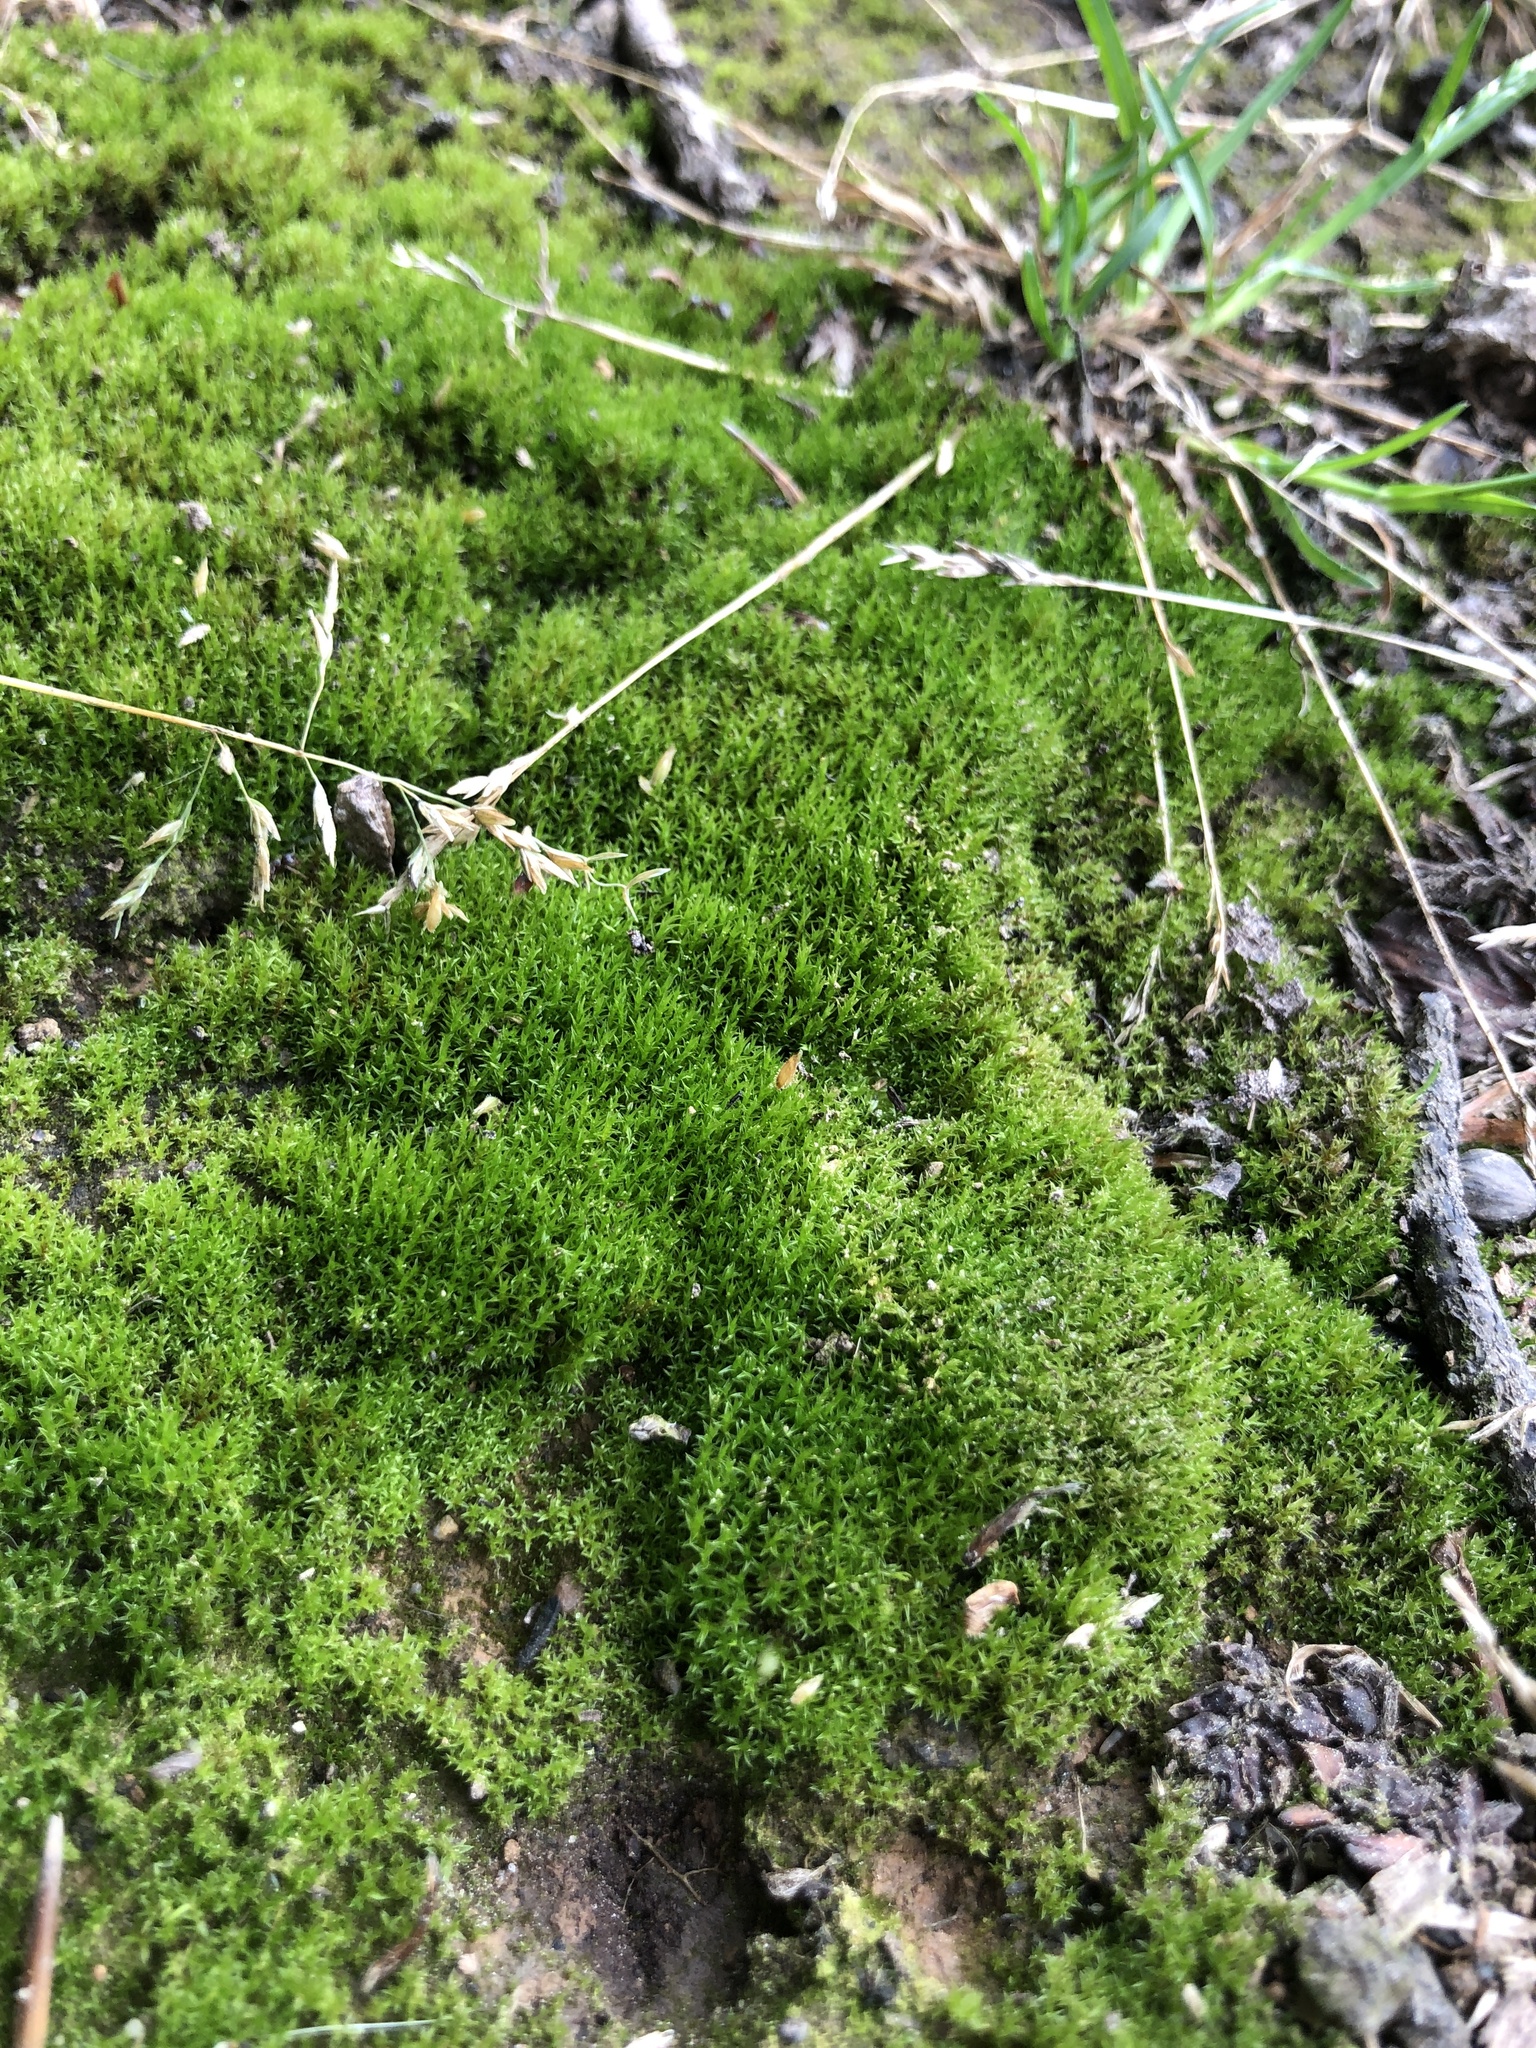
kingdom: Plantae
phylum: Bryophyta
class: Bryopsida
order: Dicranales
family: Ditrichaceae
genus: Ceratodon
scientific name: Ceratodon purpureus
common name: Redshank
